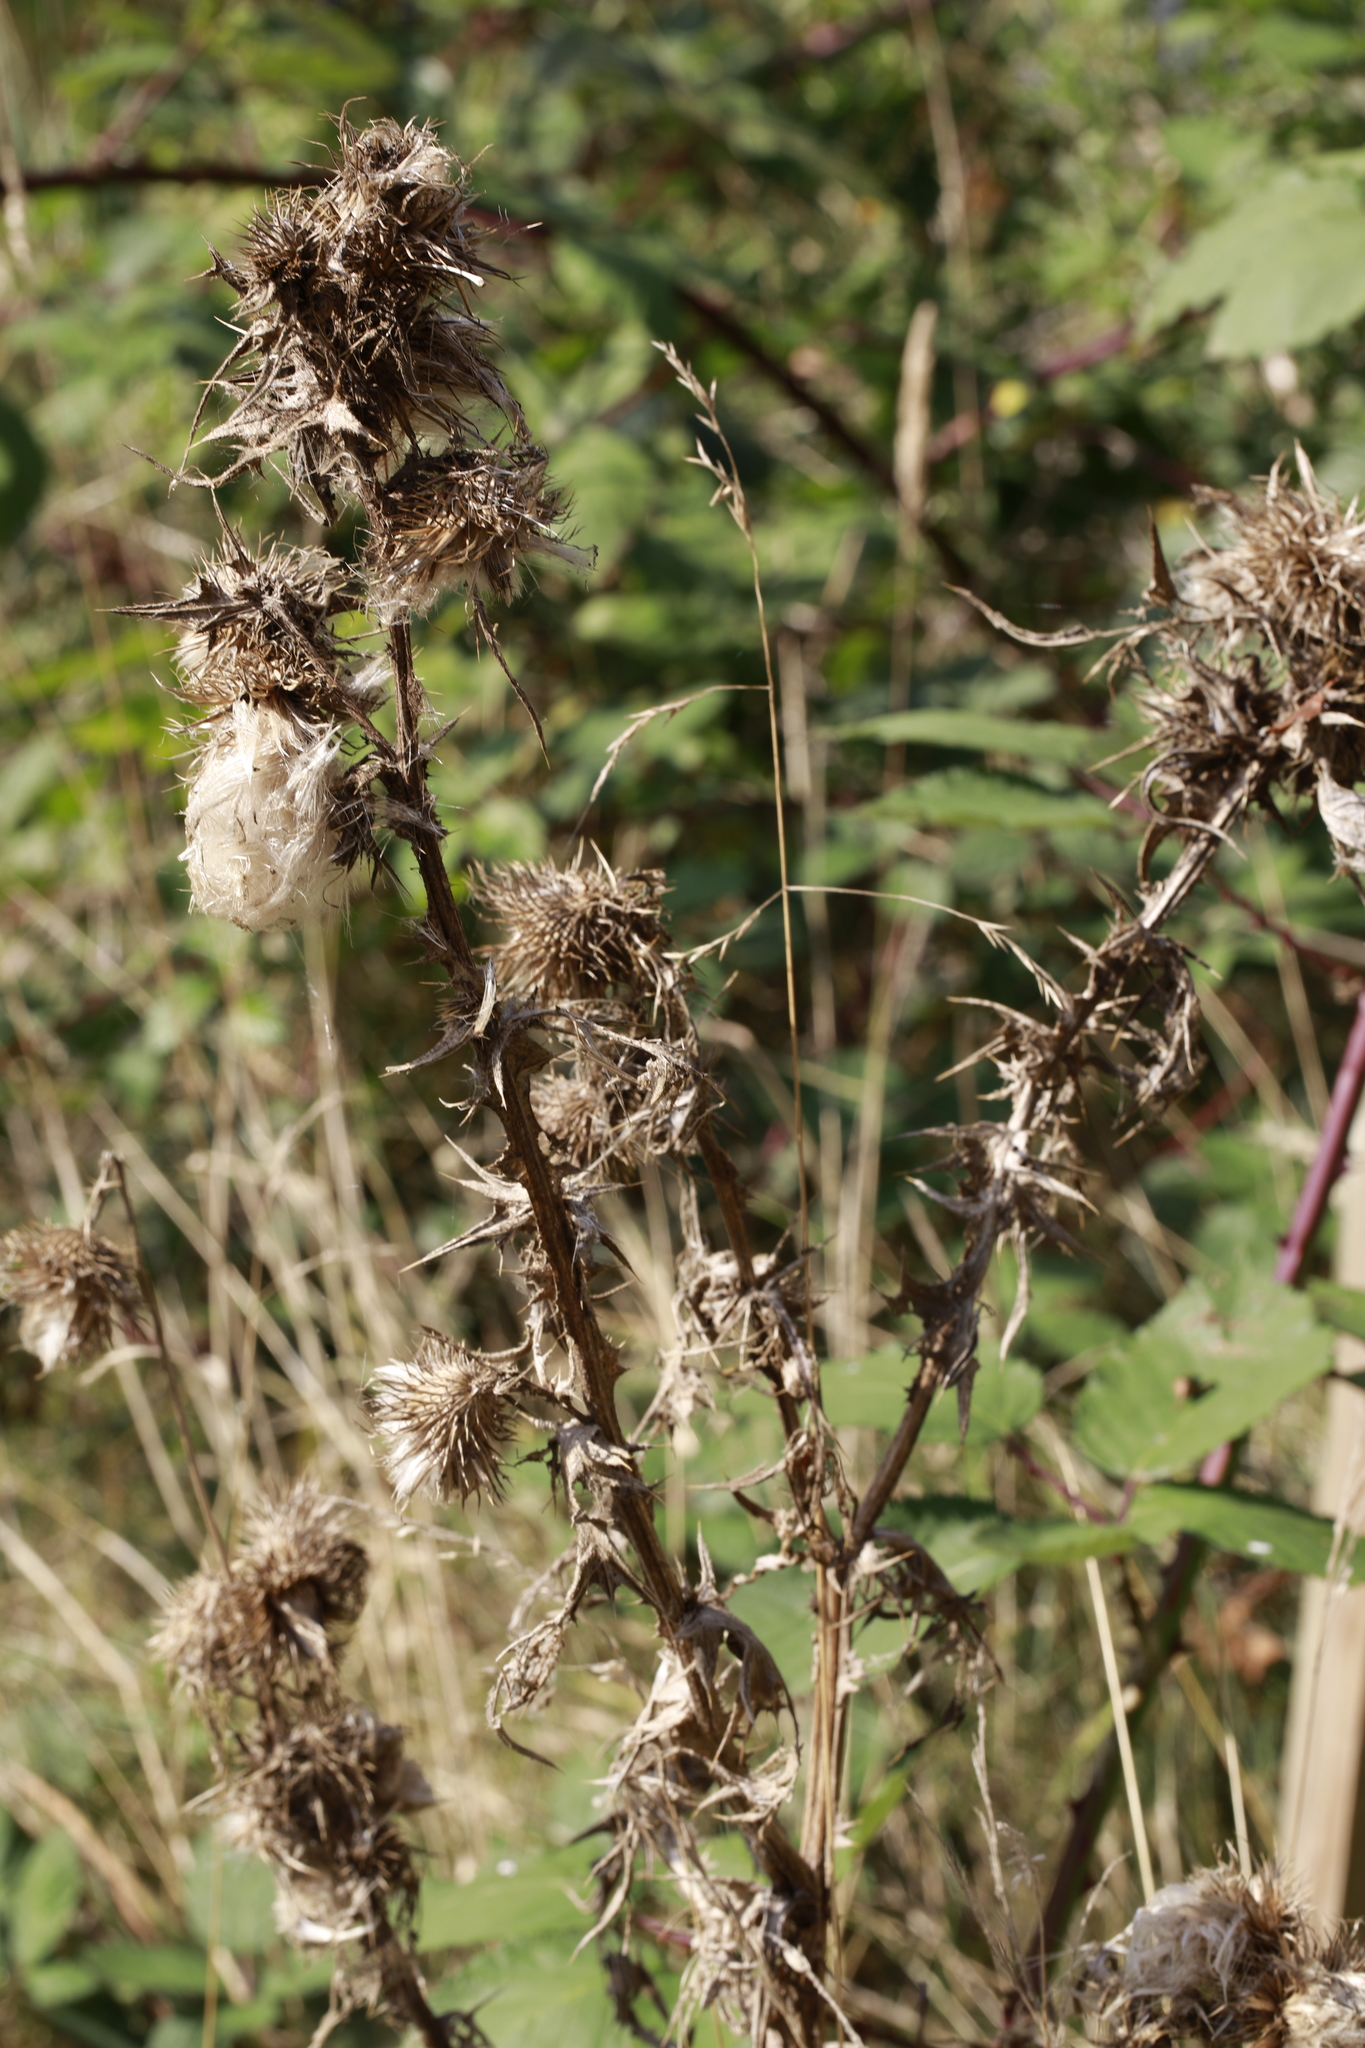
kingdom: Plantae
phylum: Tracheophyta
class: Magnoliopsida
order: Asterales
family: Asteraceae
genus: Cirsium
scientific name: Cirsium vulgare
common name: Bull thistle
